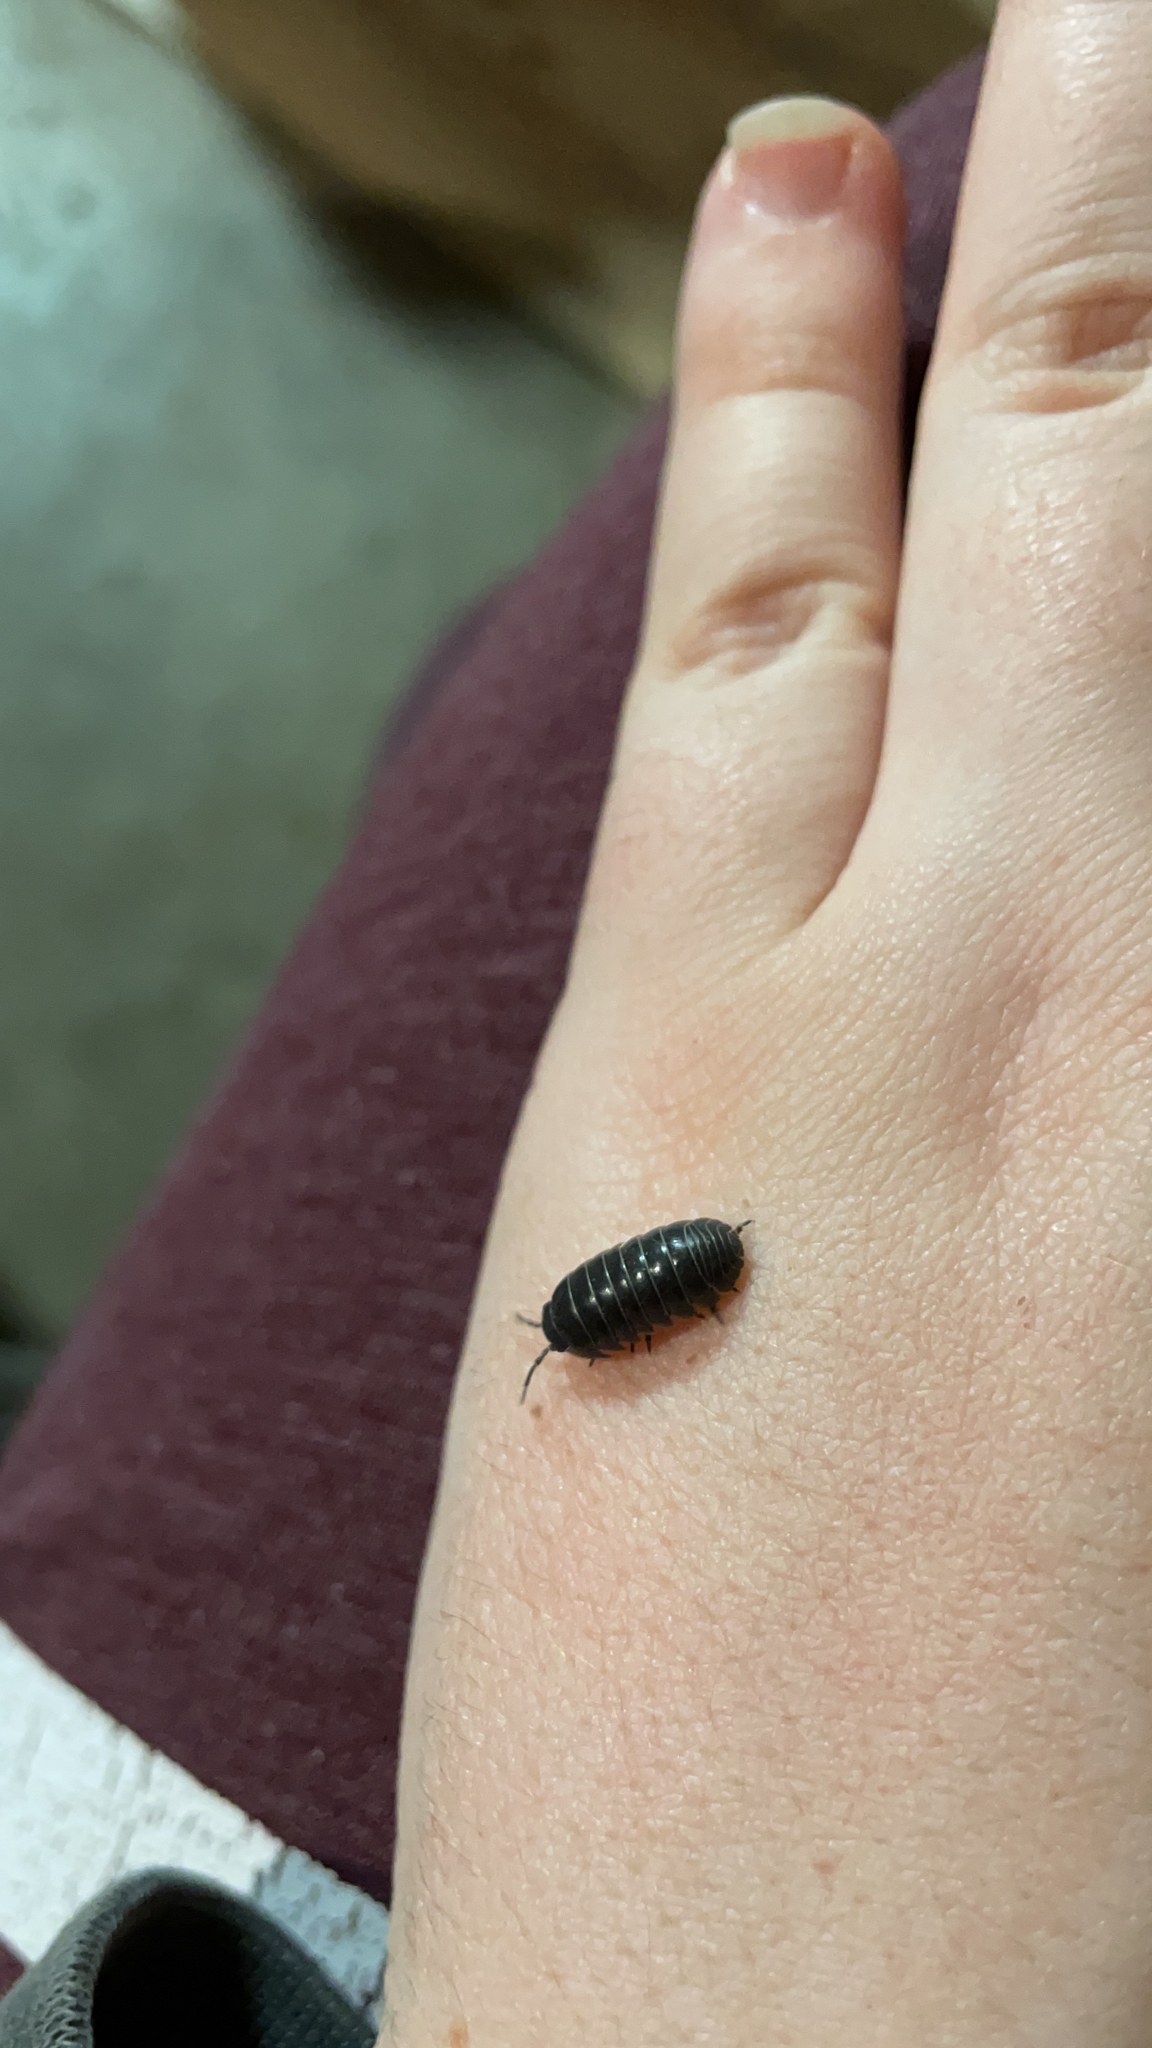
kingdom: Animalia
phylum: Arthropoda
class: Malacostraca
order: Isopoda
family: Armadillidiidae
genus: Armadillidium
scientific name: Armadillidium vulgare
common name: Common pill woodlouse
